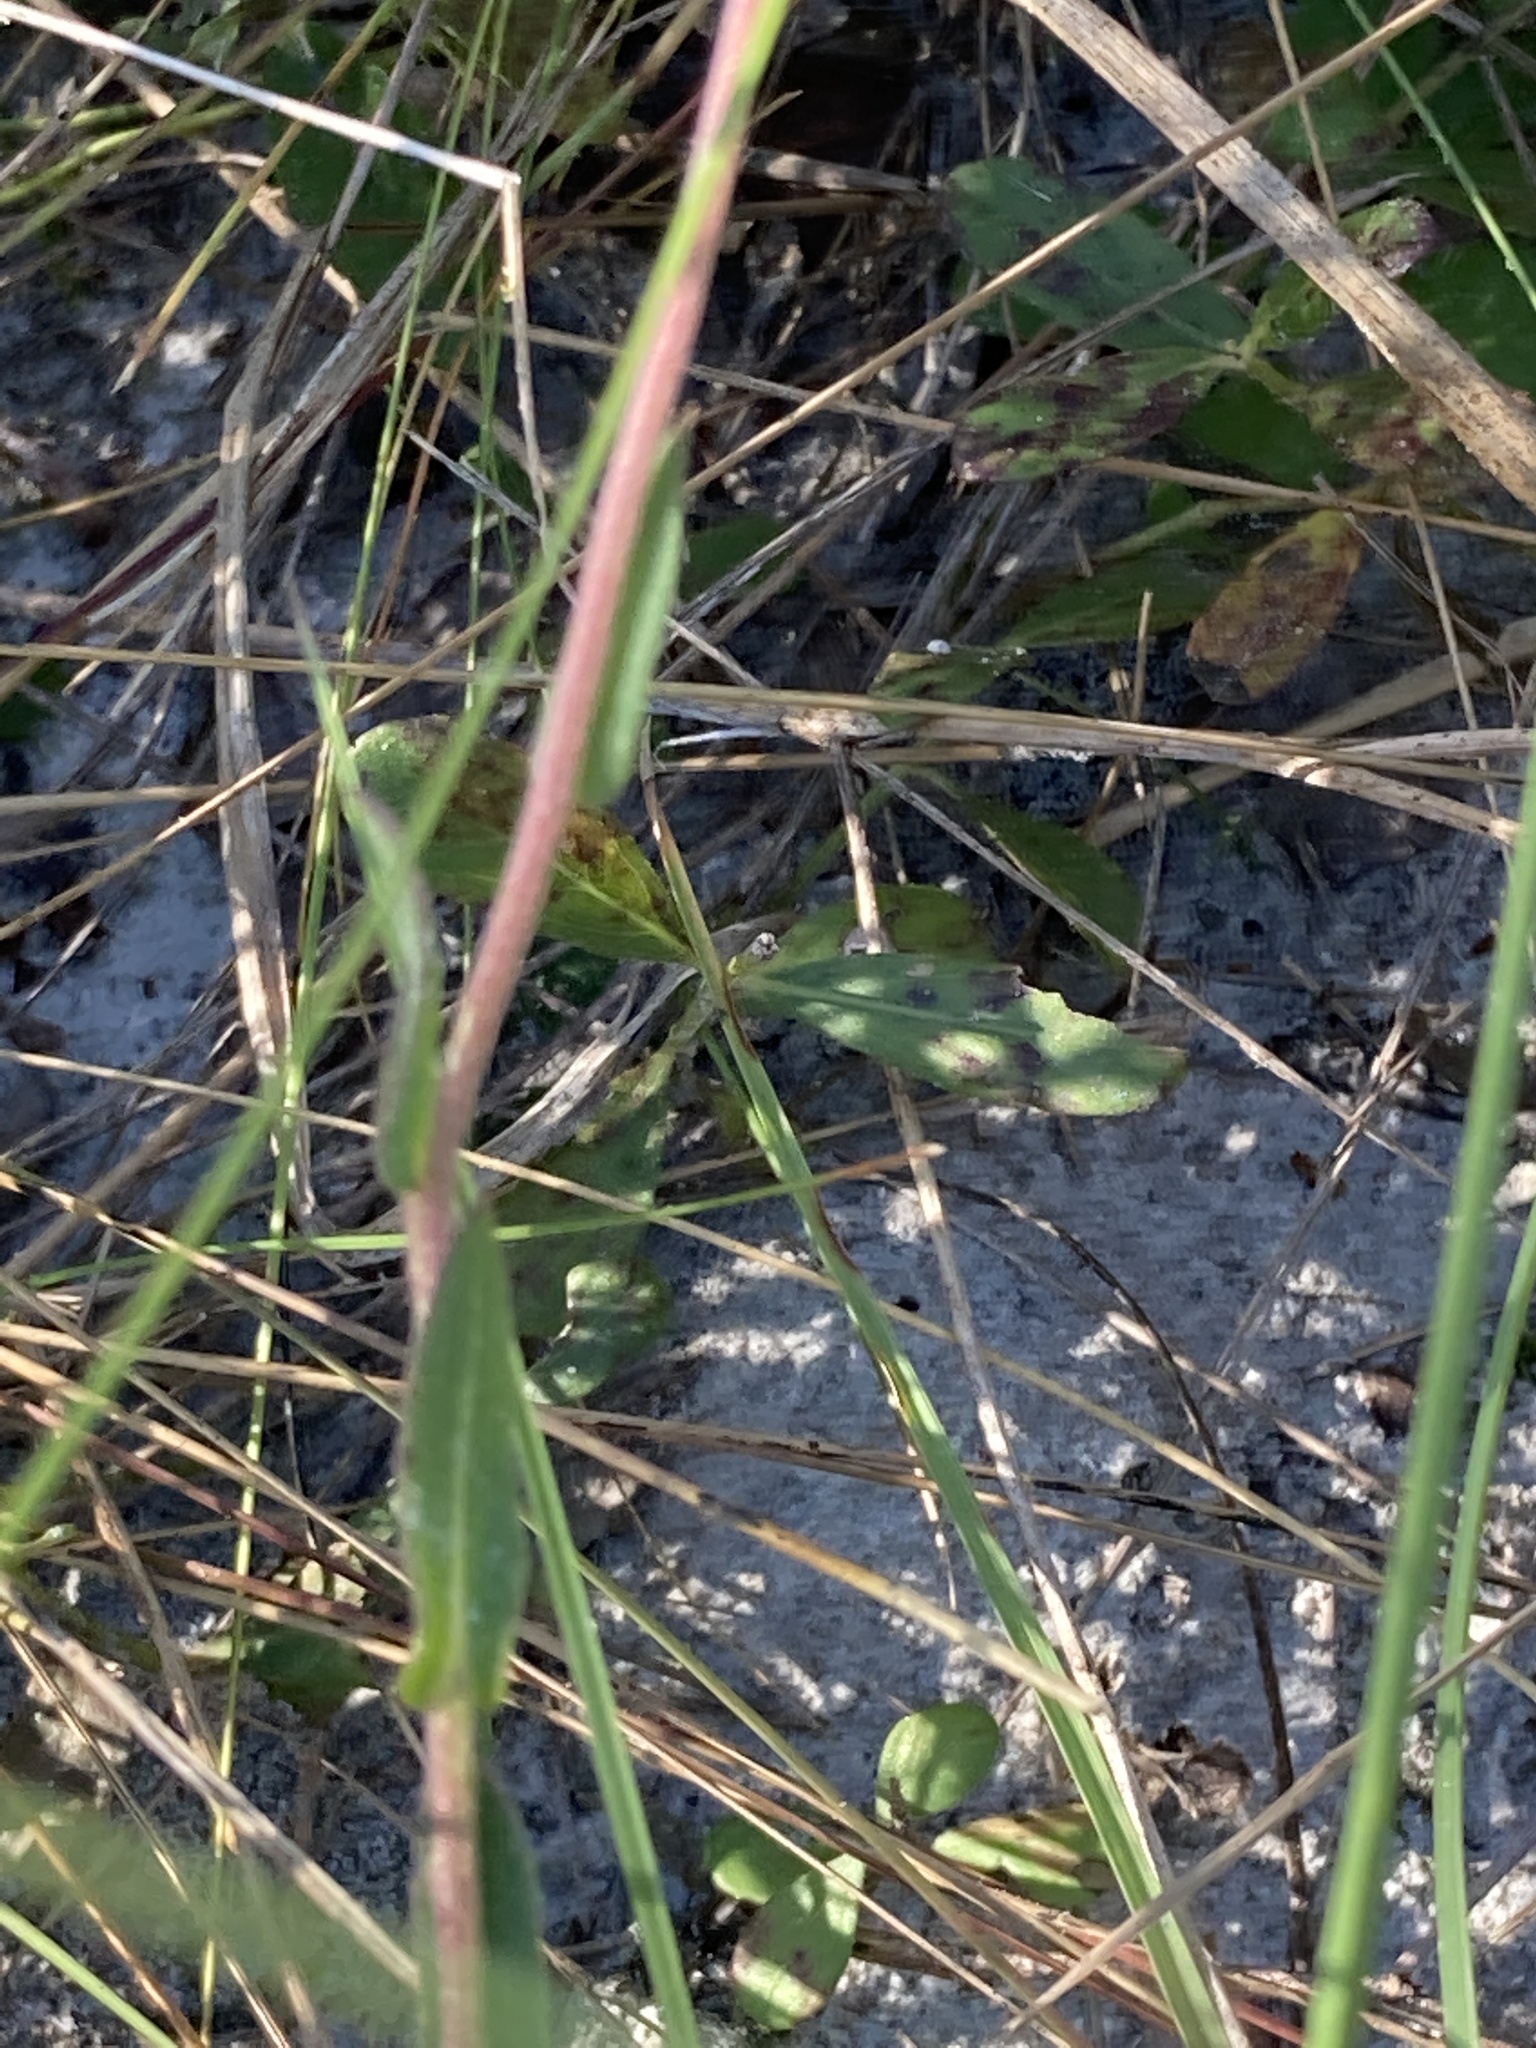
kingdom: Plantae
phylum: Tracheophyta
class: Magnoliopsida
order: Asterales
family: Asteraceae
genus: Gaillardia
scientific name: Gaillardia aestivalis
